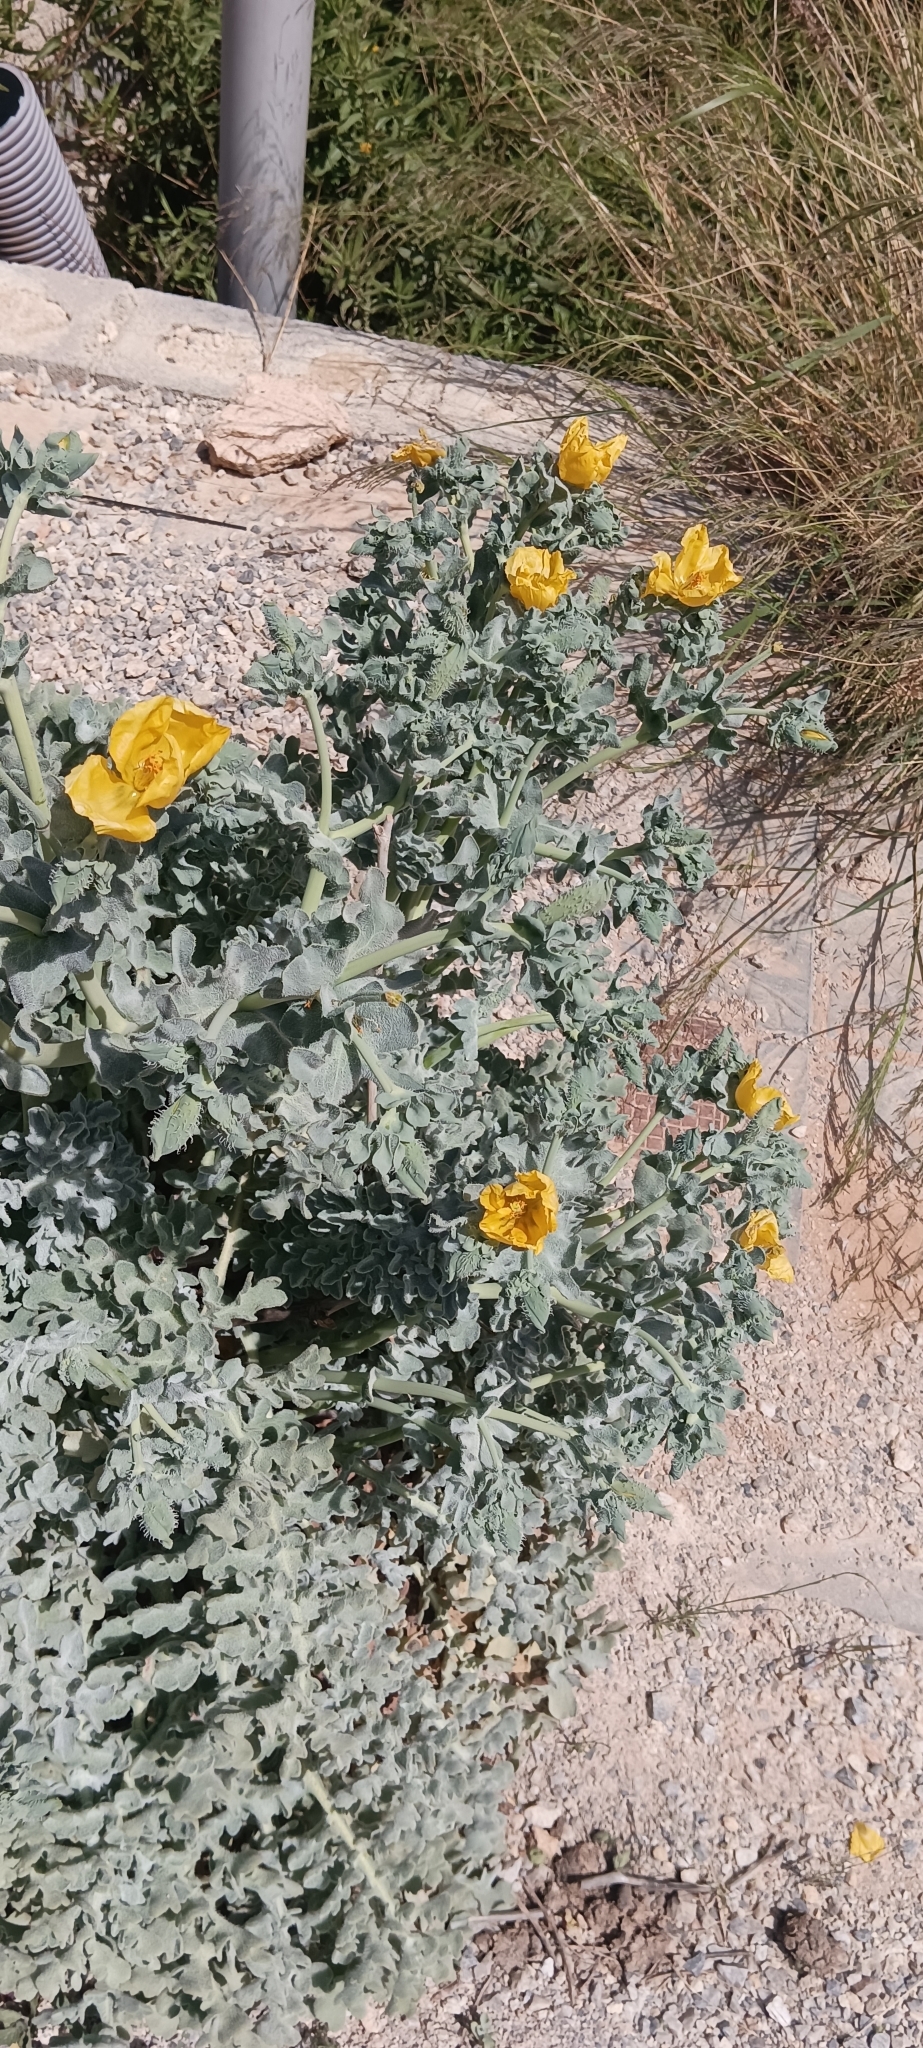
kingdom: Plantae
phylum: Tracheophyta
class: Magnoliopsida
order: Ranunculales
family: Papaveraceae
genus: Glaucium
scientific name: Glaucium flavum
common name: Yellow horned-poppy
